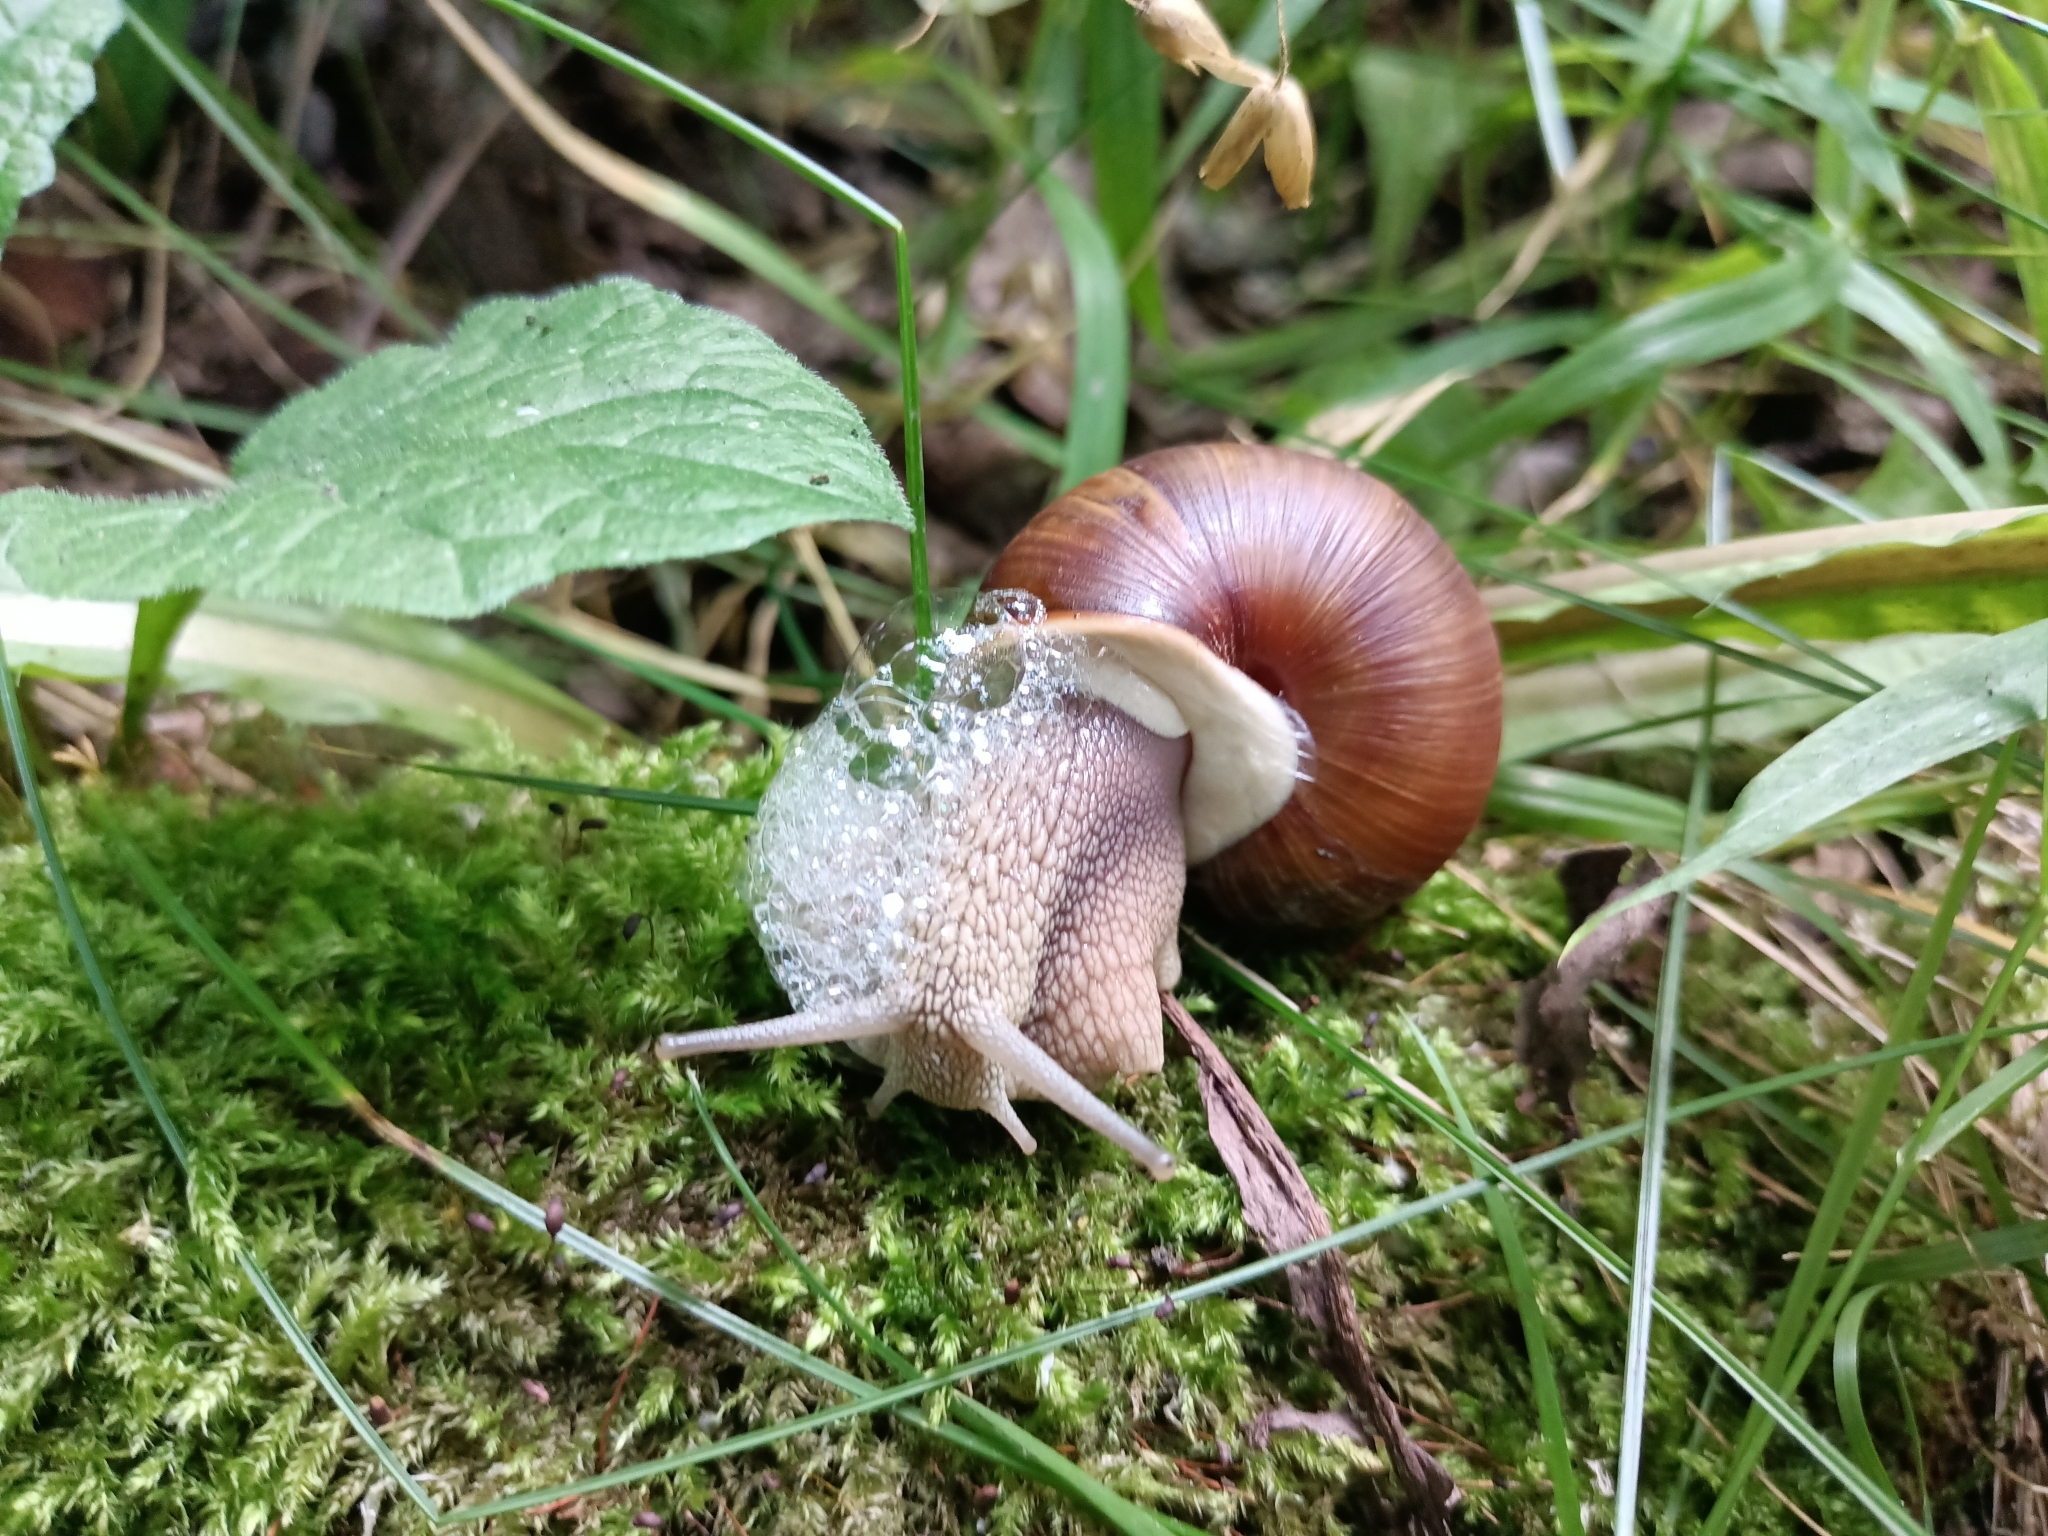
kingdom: Animalia
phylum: Mollusca
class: Gastropoda
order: Stylommatophora
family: Helicidae
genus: Helix
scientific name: Helix pomatia
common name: Roman snail
